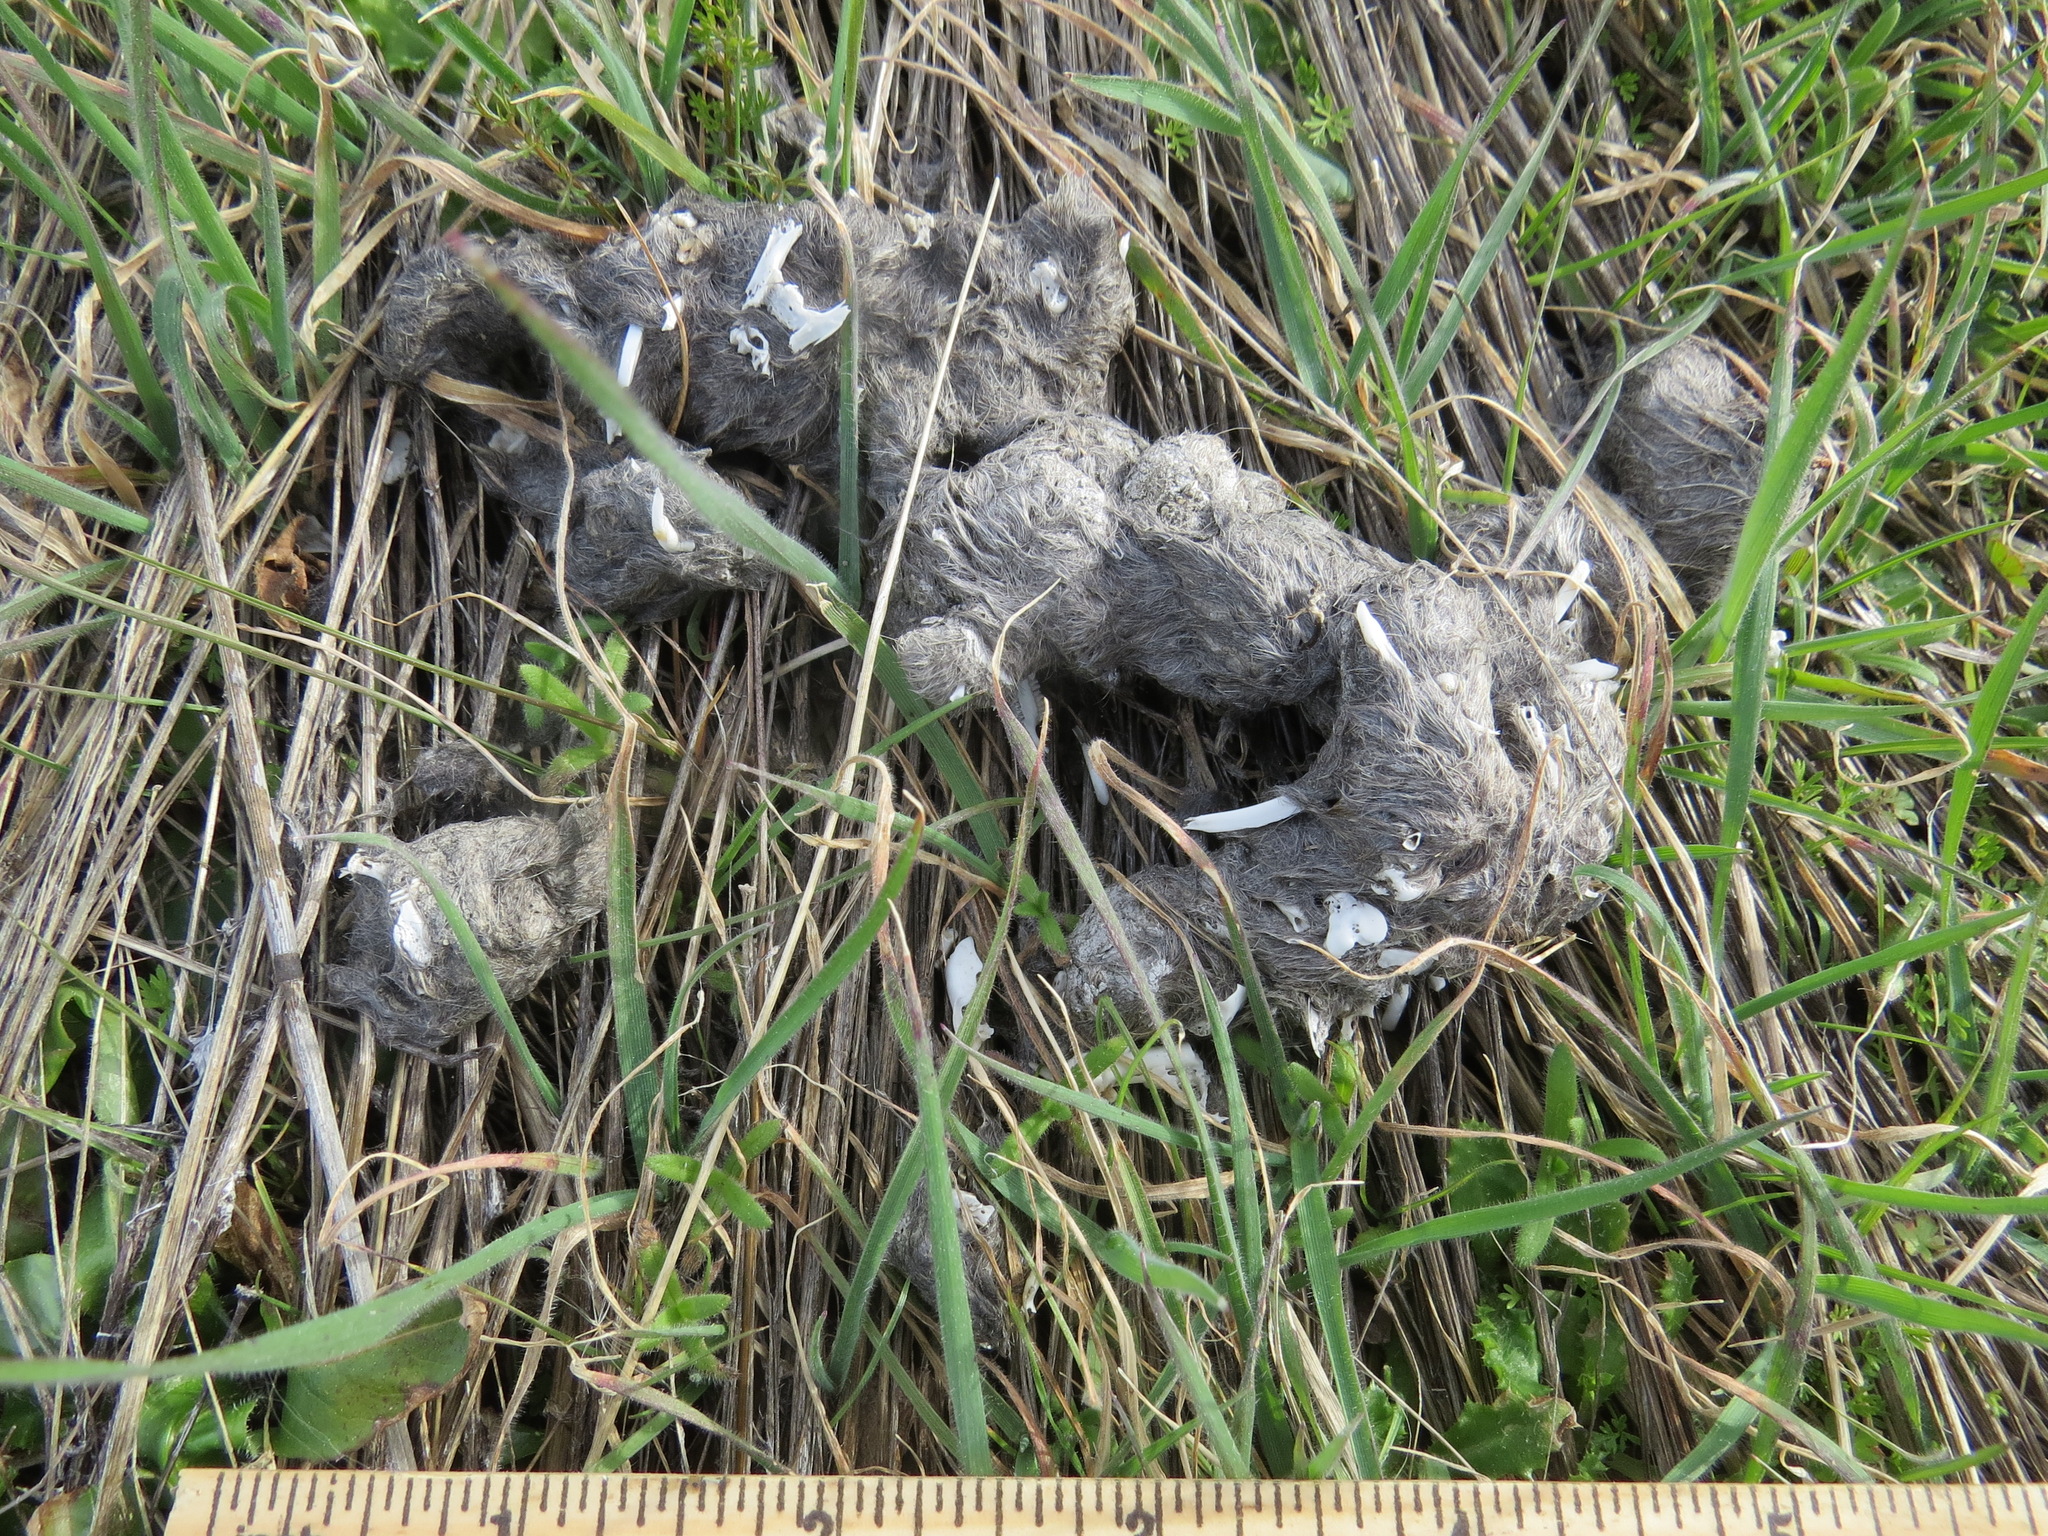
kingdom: Animalia
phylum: Chordata
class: Mammalia
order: Carnivora
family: Canidae
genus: Canis
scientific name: Canis latrans
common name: Coyote
